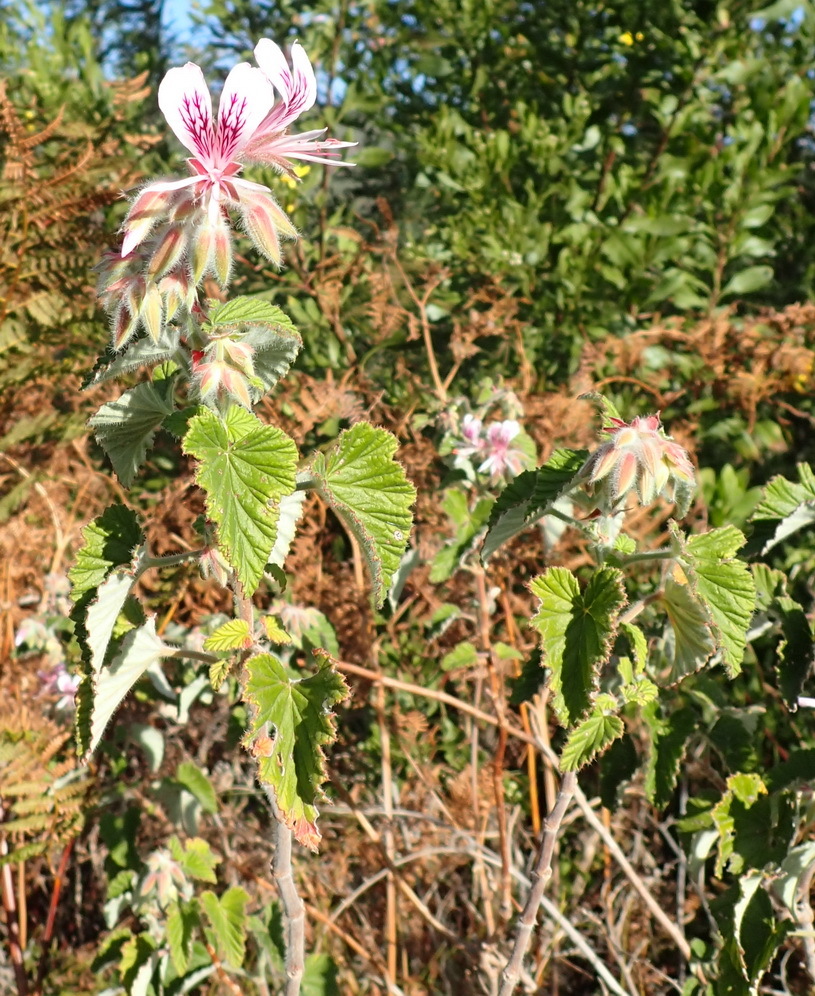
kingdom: Plantae
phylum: Tracheophyta
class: Magnoliopsida
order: Geraniales
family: Geraniaceae
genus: Pelargonium
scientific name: Pelargonium cordifolium
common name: Heart-leaf pelargonium
